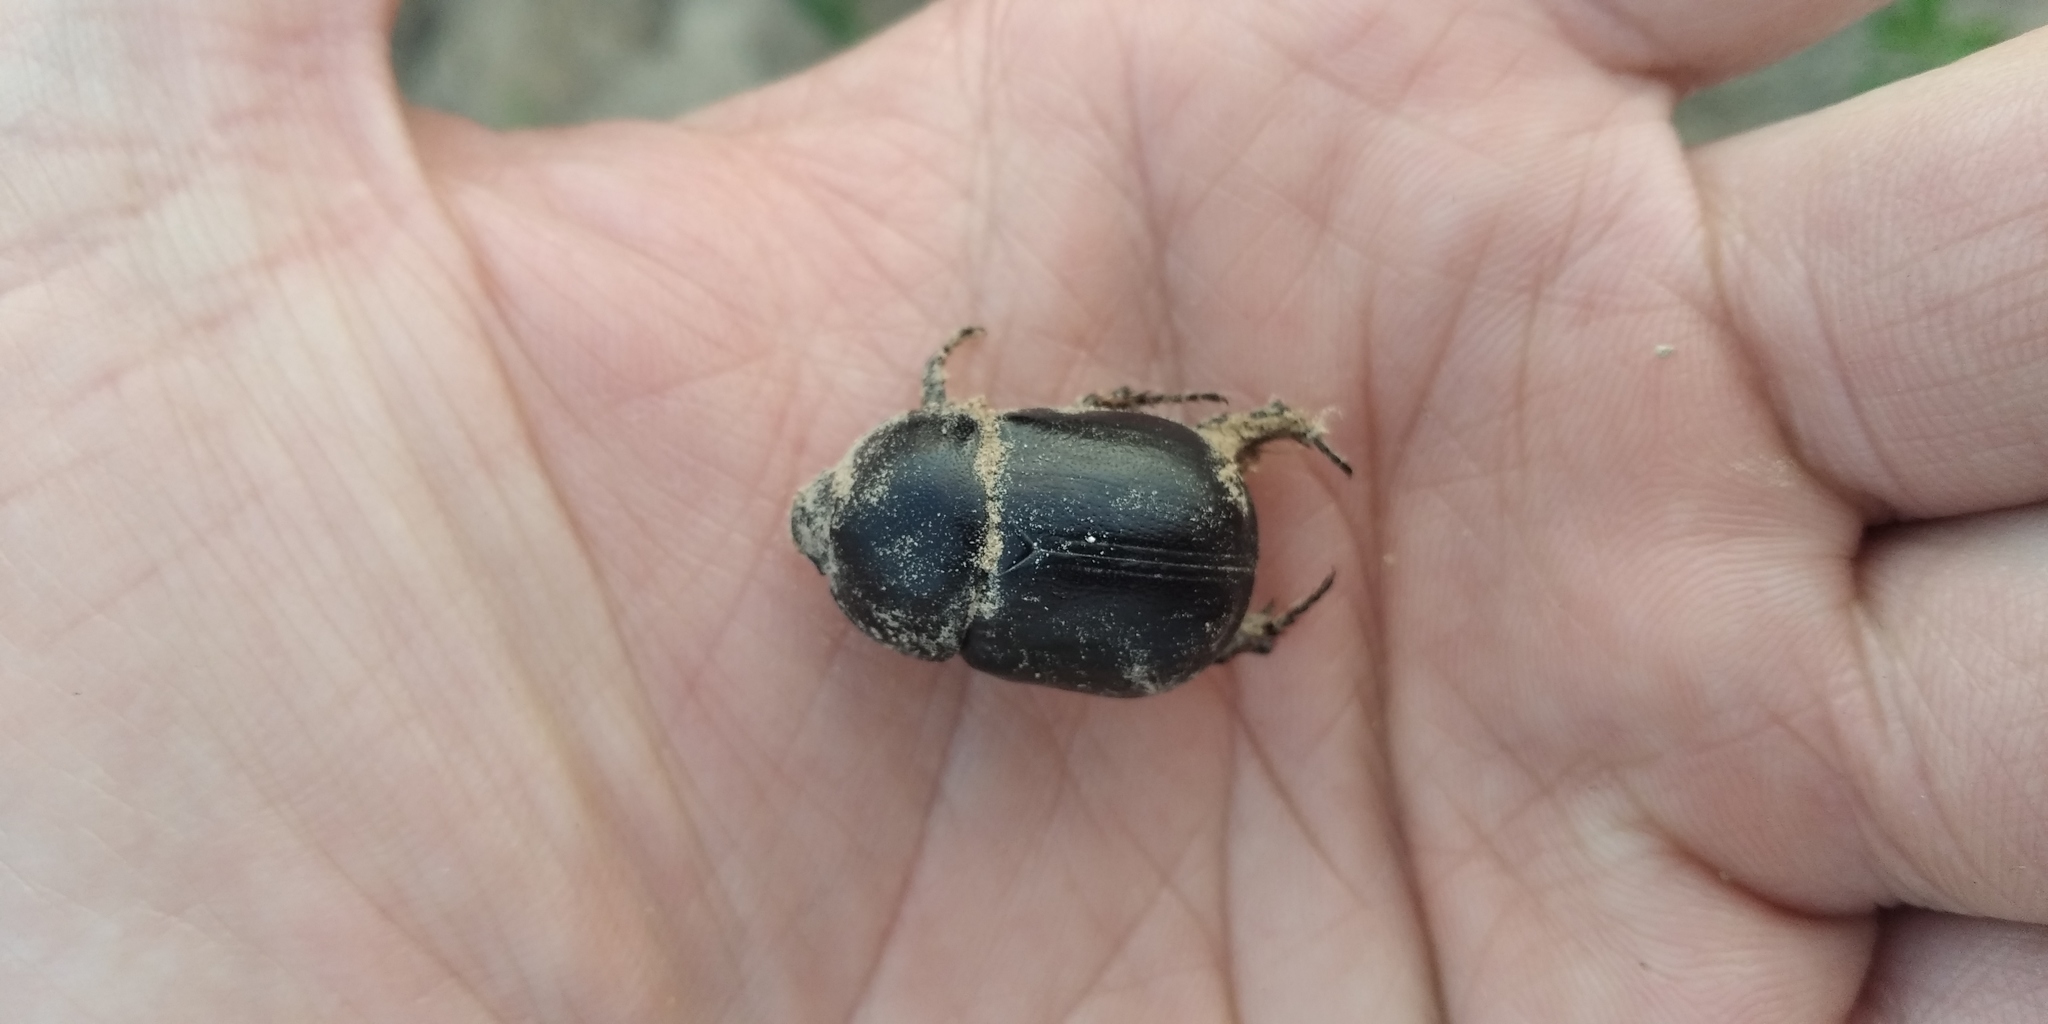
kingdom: Animalia
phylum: Arthropoda
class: Insecta
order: Coleoptera
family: Scarabaeidae
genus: Pentodon
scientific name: Pentodon idiota
